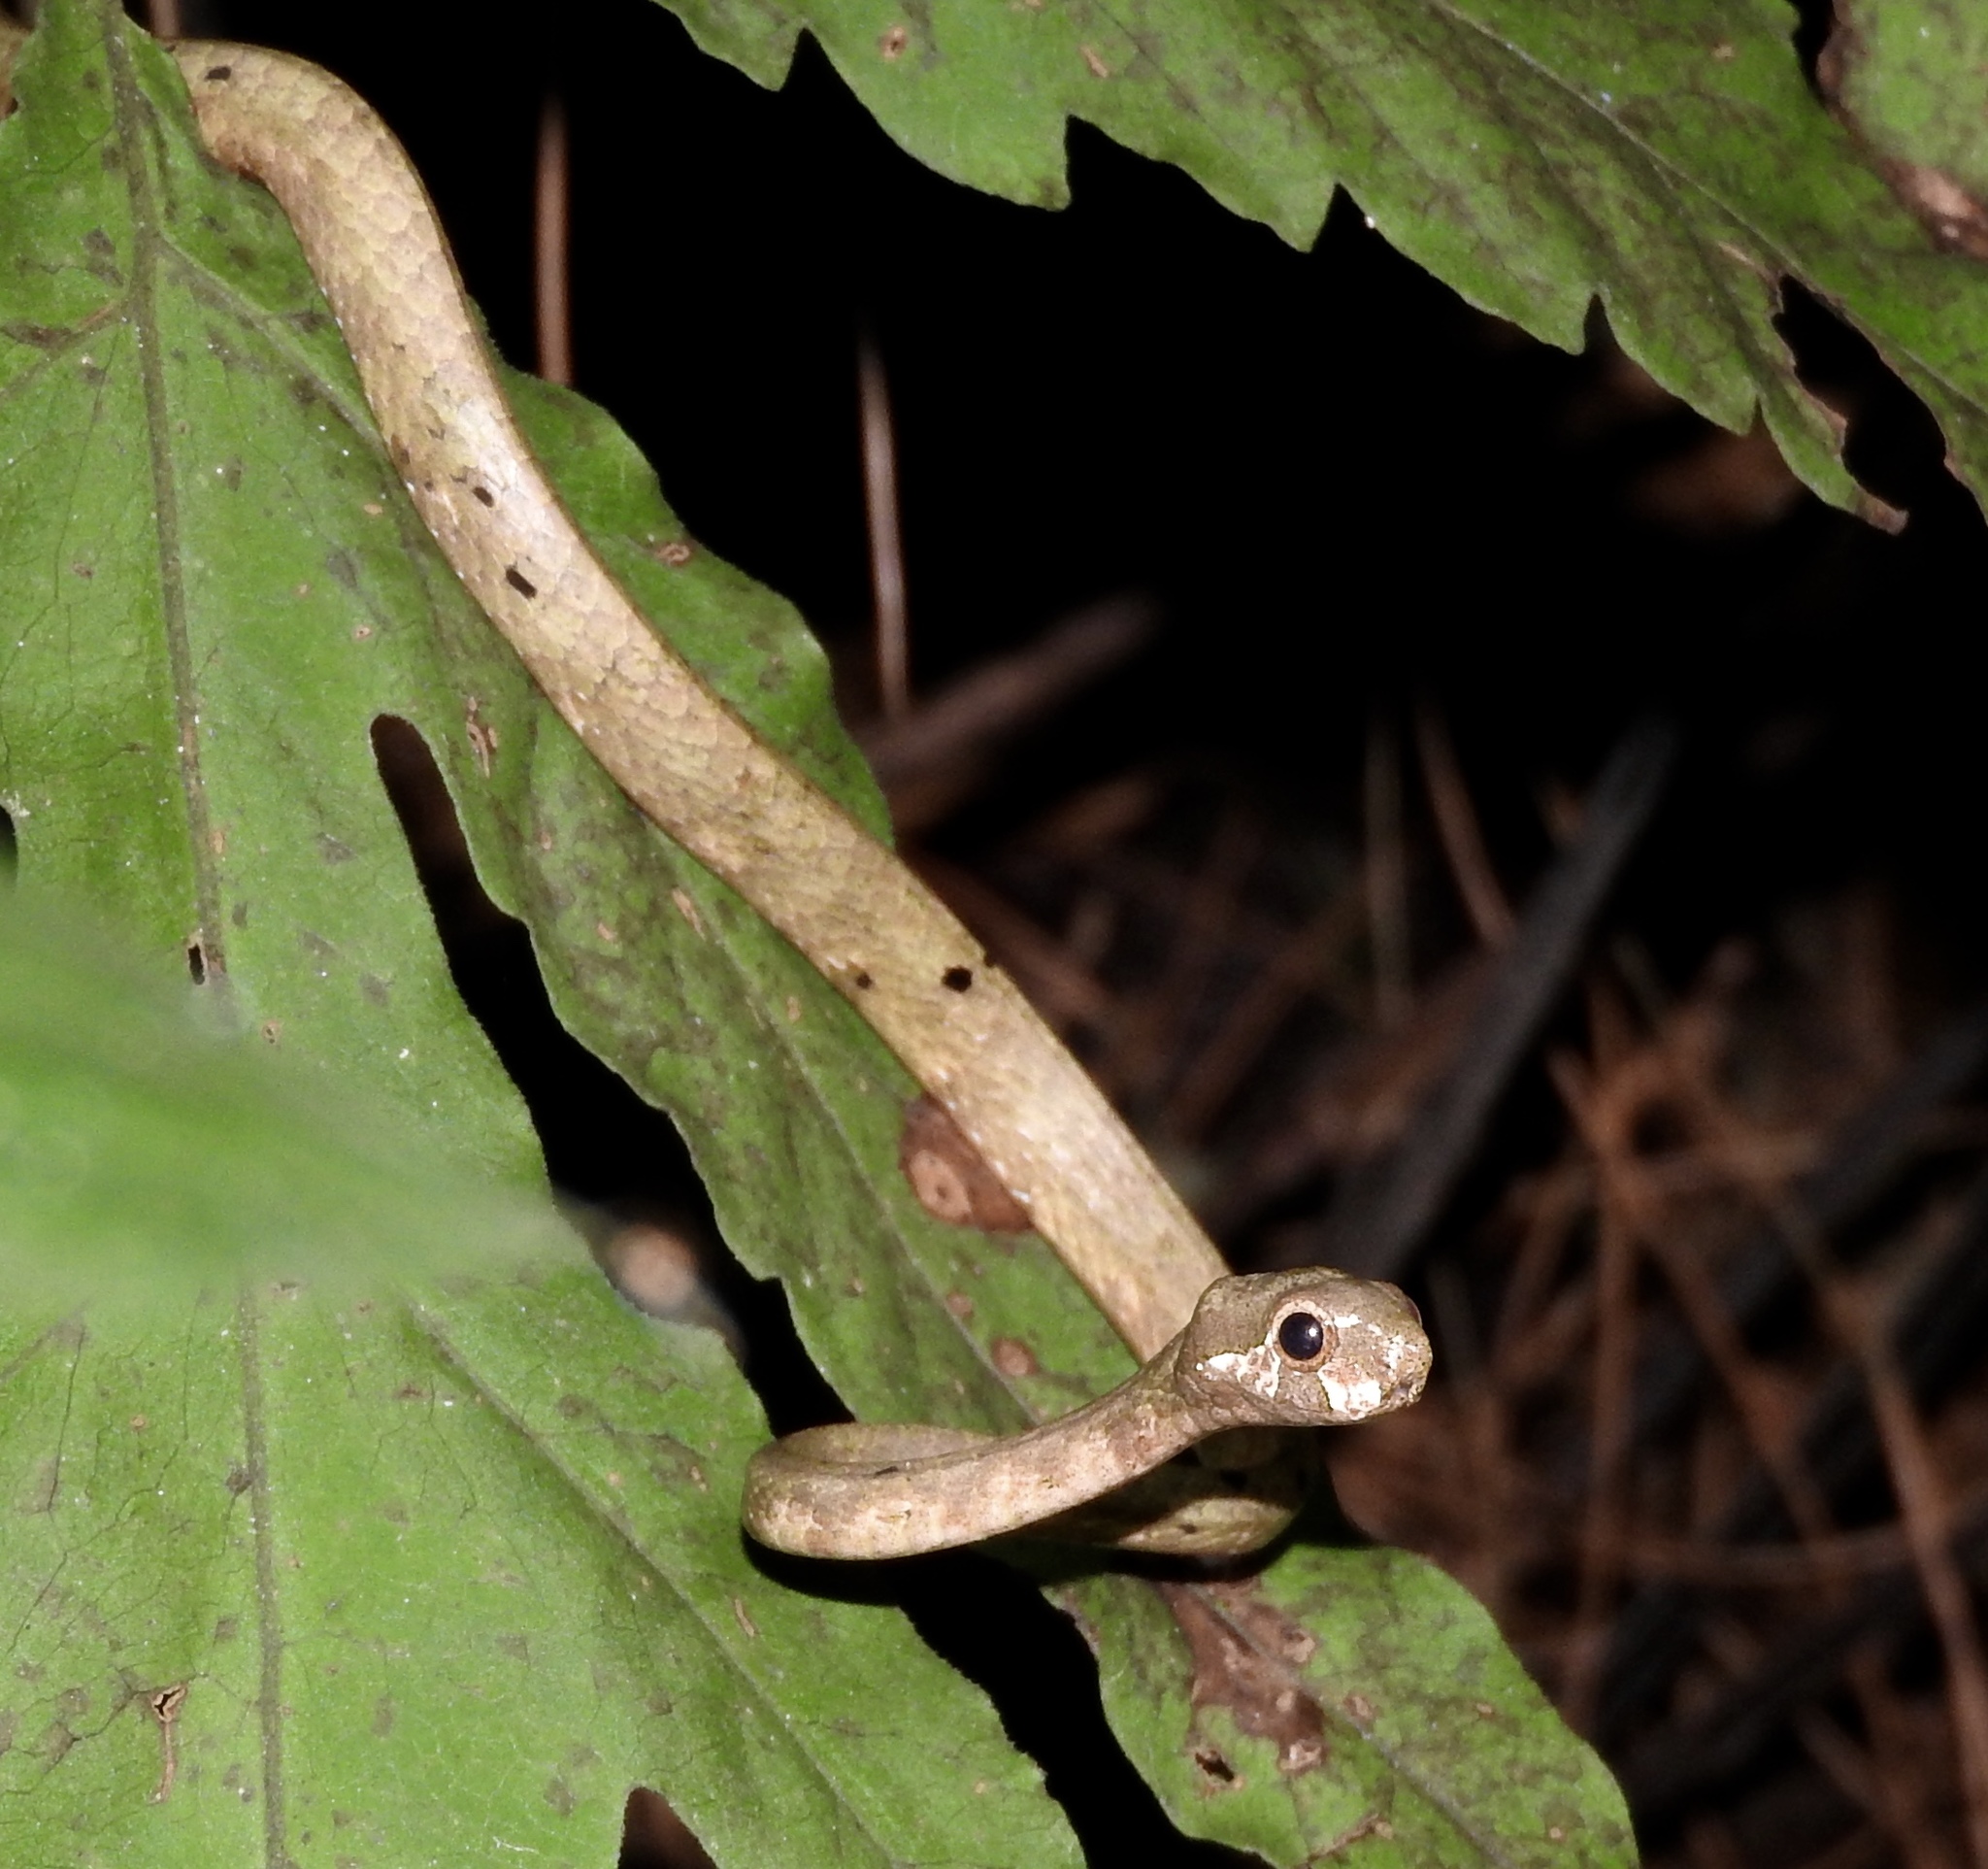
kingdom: Animalia
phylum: Chordata
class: Squamata
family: Pareidae
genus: Aplopeltura
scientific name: Aplopeltura boa
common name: Blunthead slug snake
